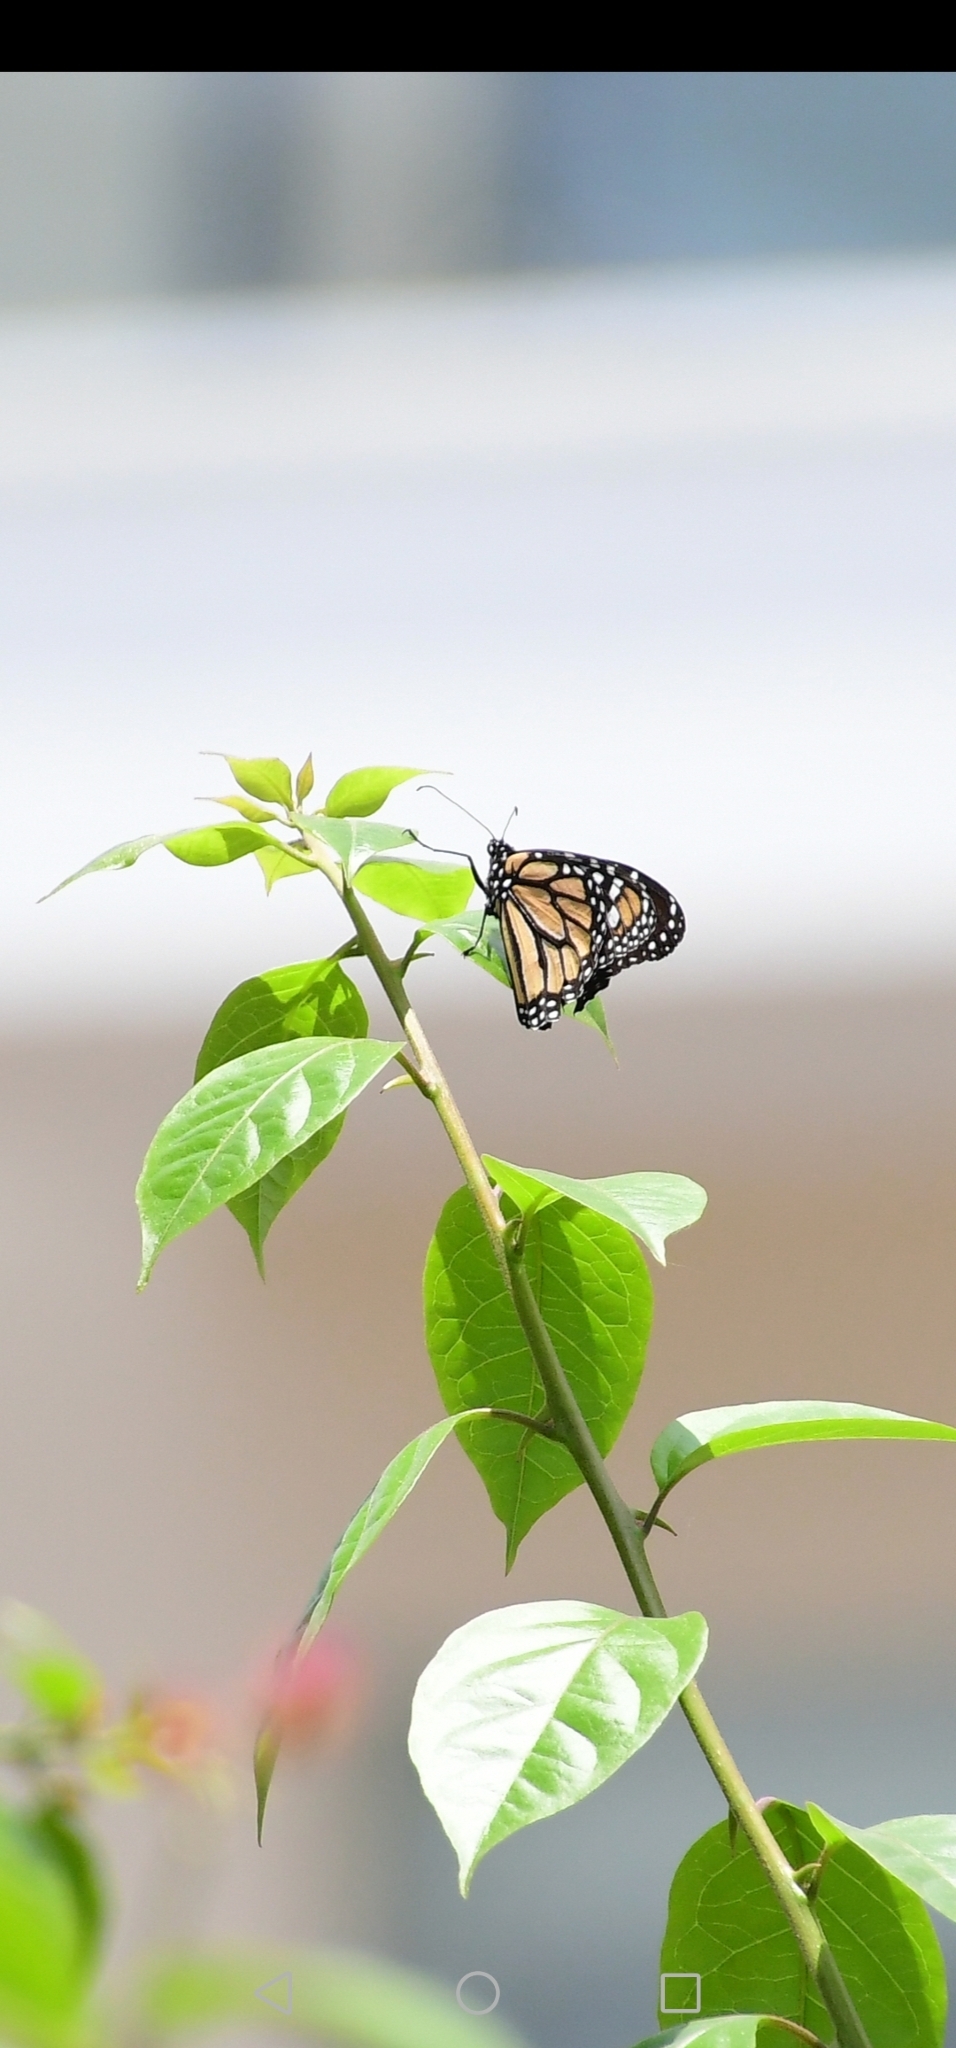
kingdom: Animalia
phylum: Arthropoda
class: Insecta
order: Lepidoptera
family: Nymphalidae
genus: Danaus
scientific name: Danaus plexippus
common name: Monarch
